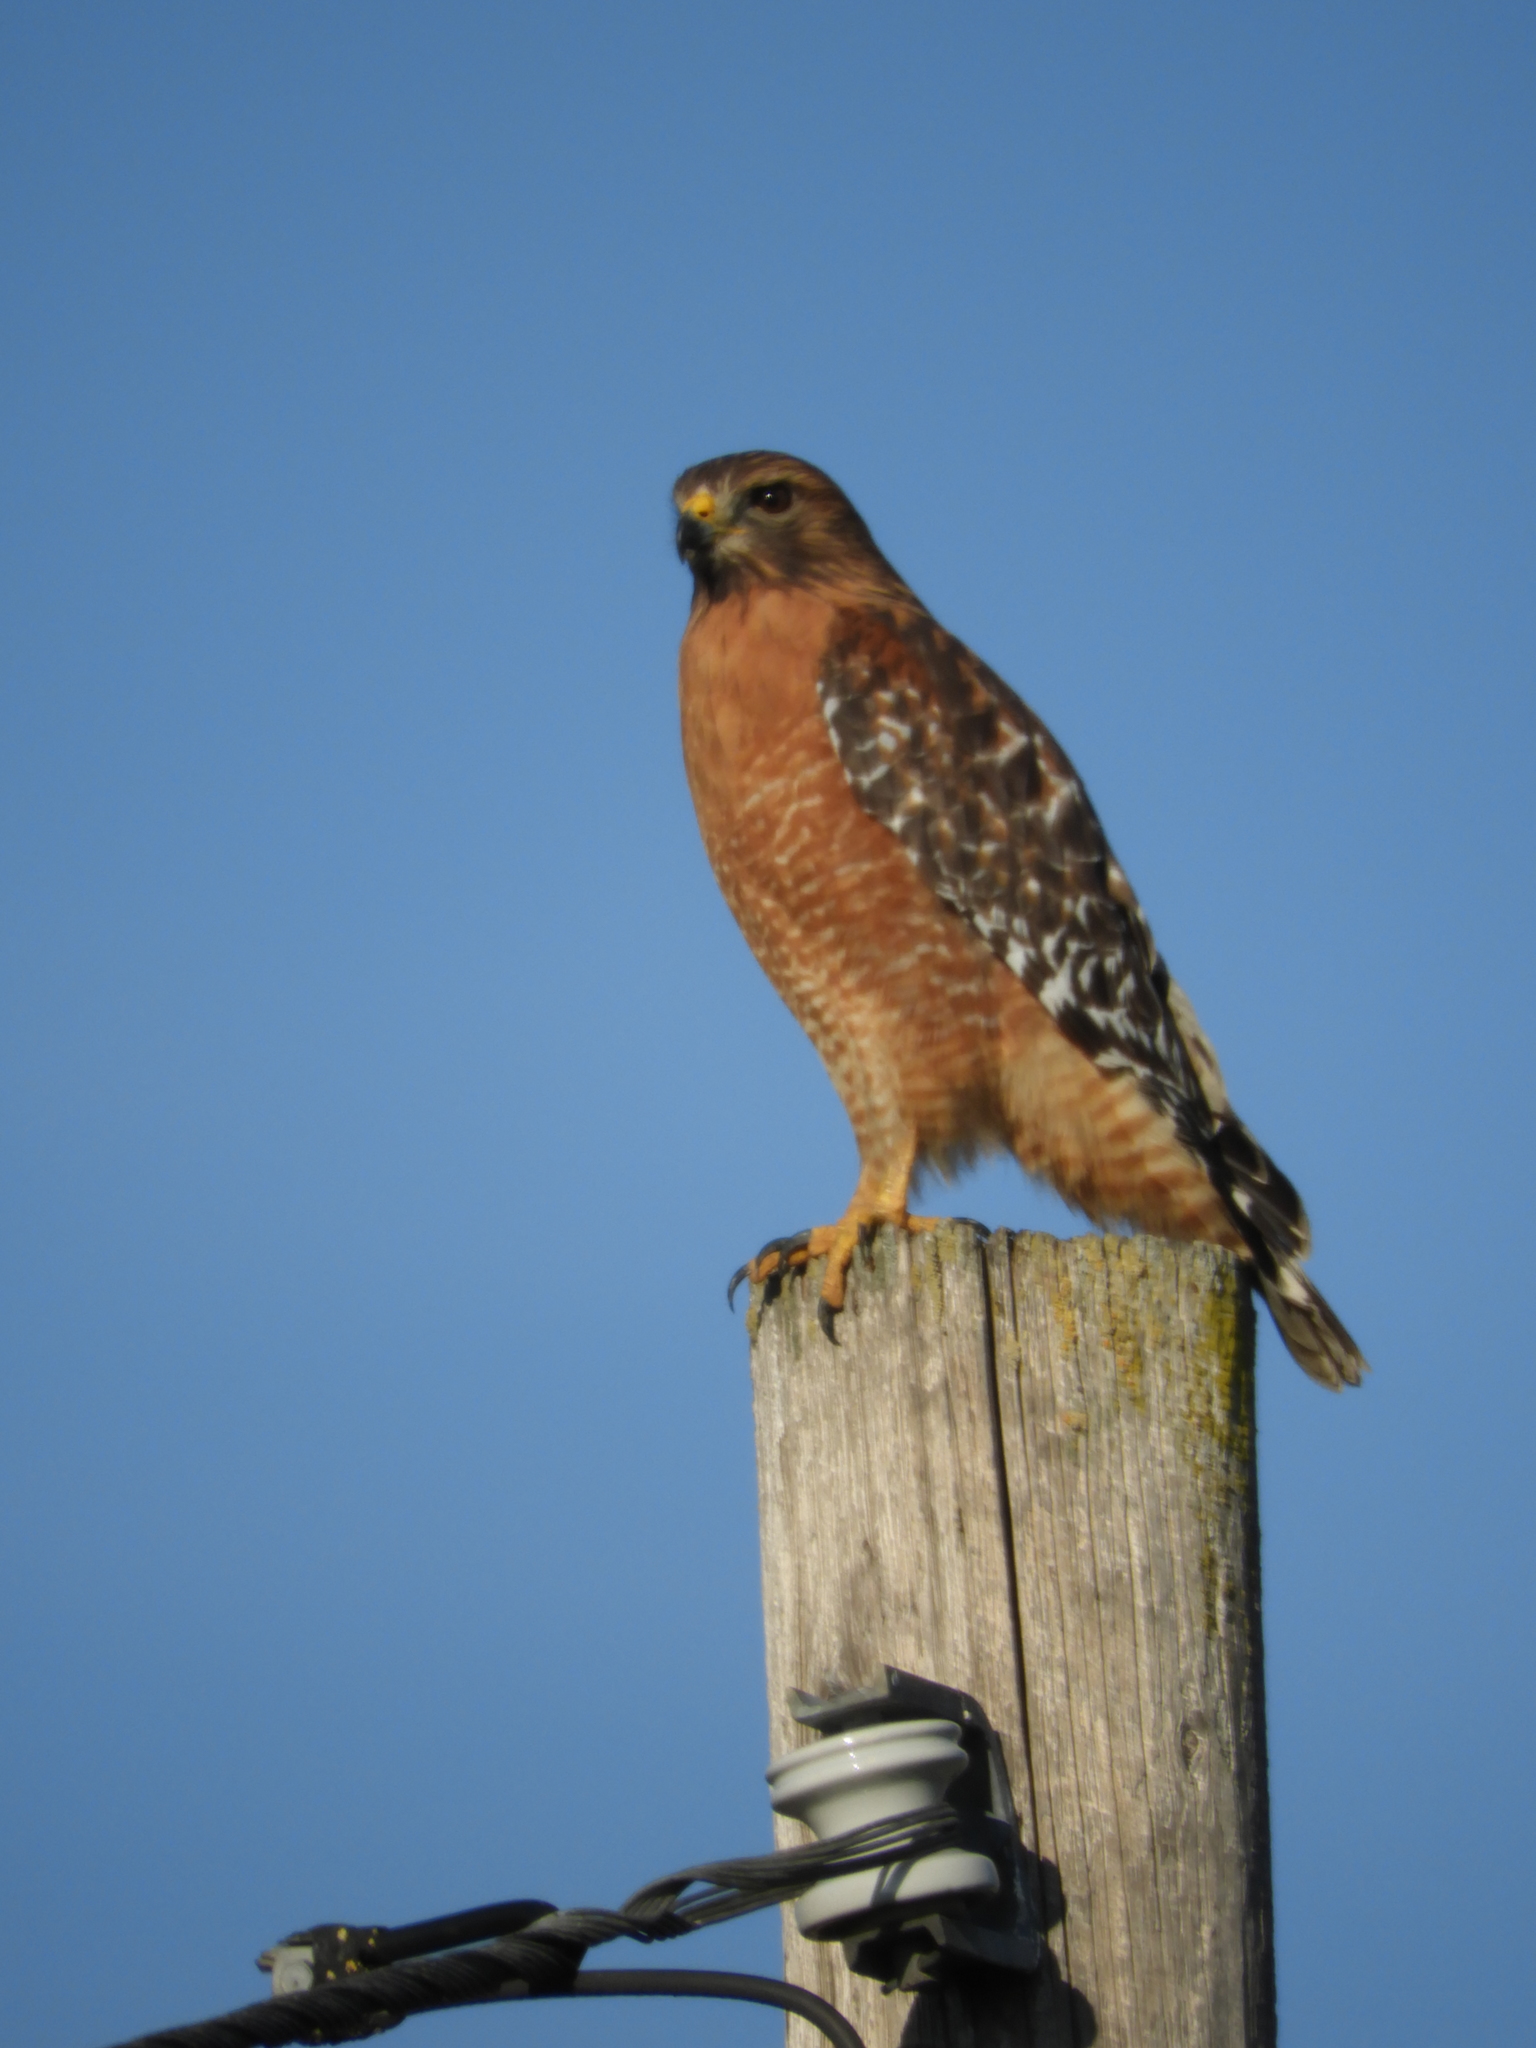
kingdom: Animalia
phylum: Chordata
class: Aves
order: Accipitriformes
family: Accipitridae
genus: Buteo
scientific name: Buteo lineatus
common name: Red-shouldered hawk
